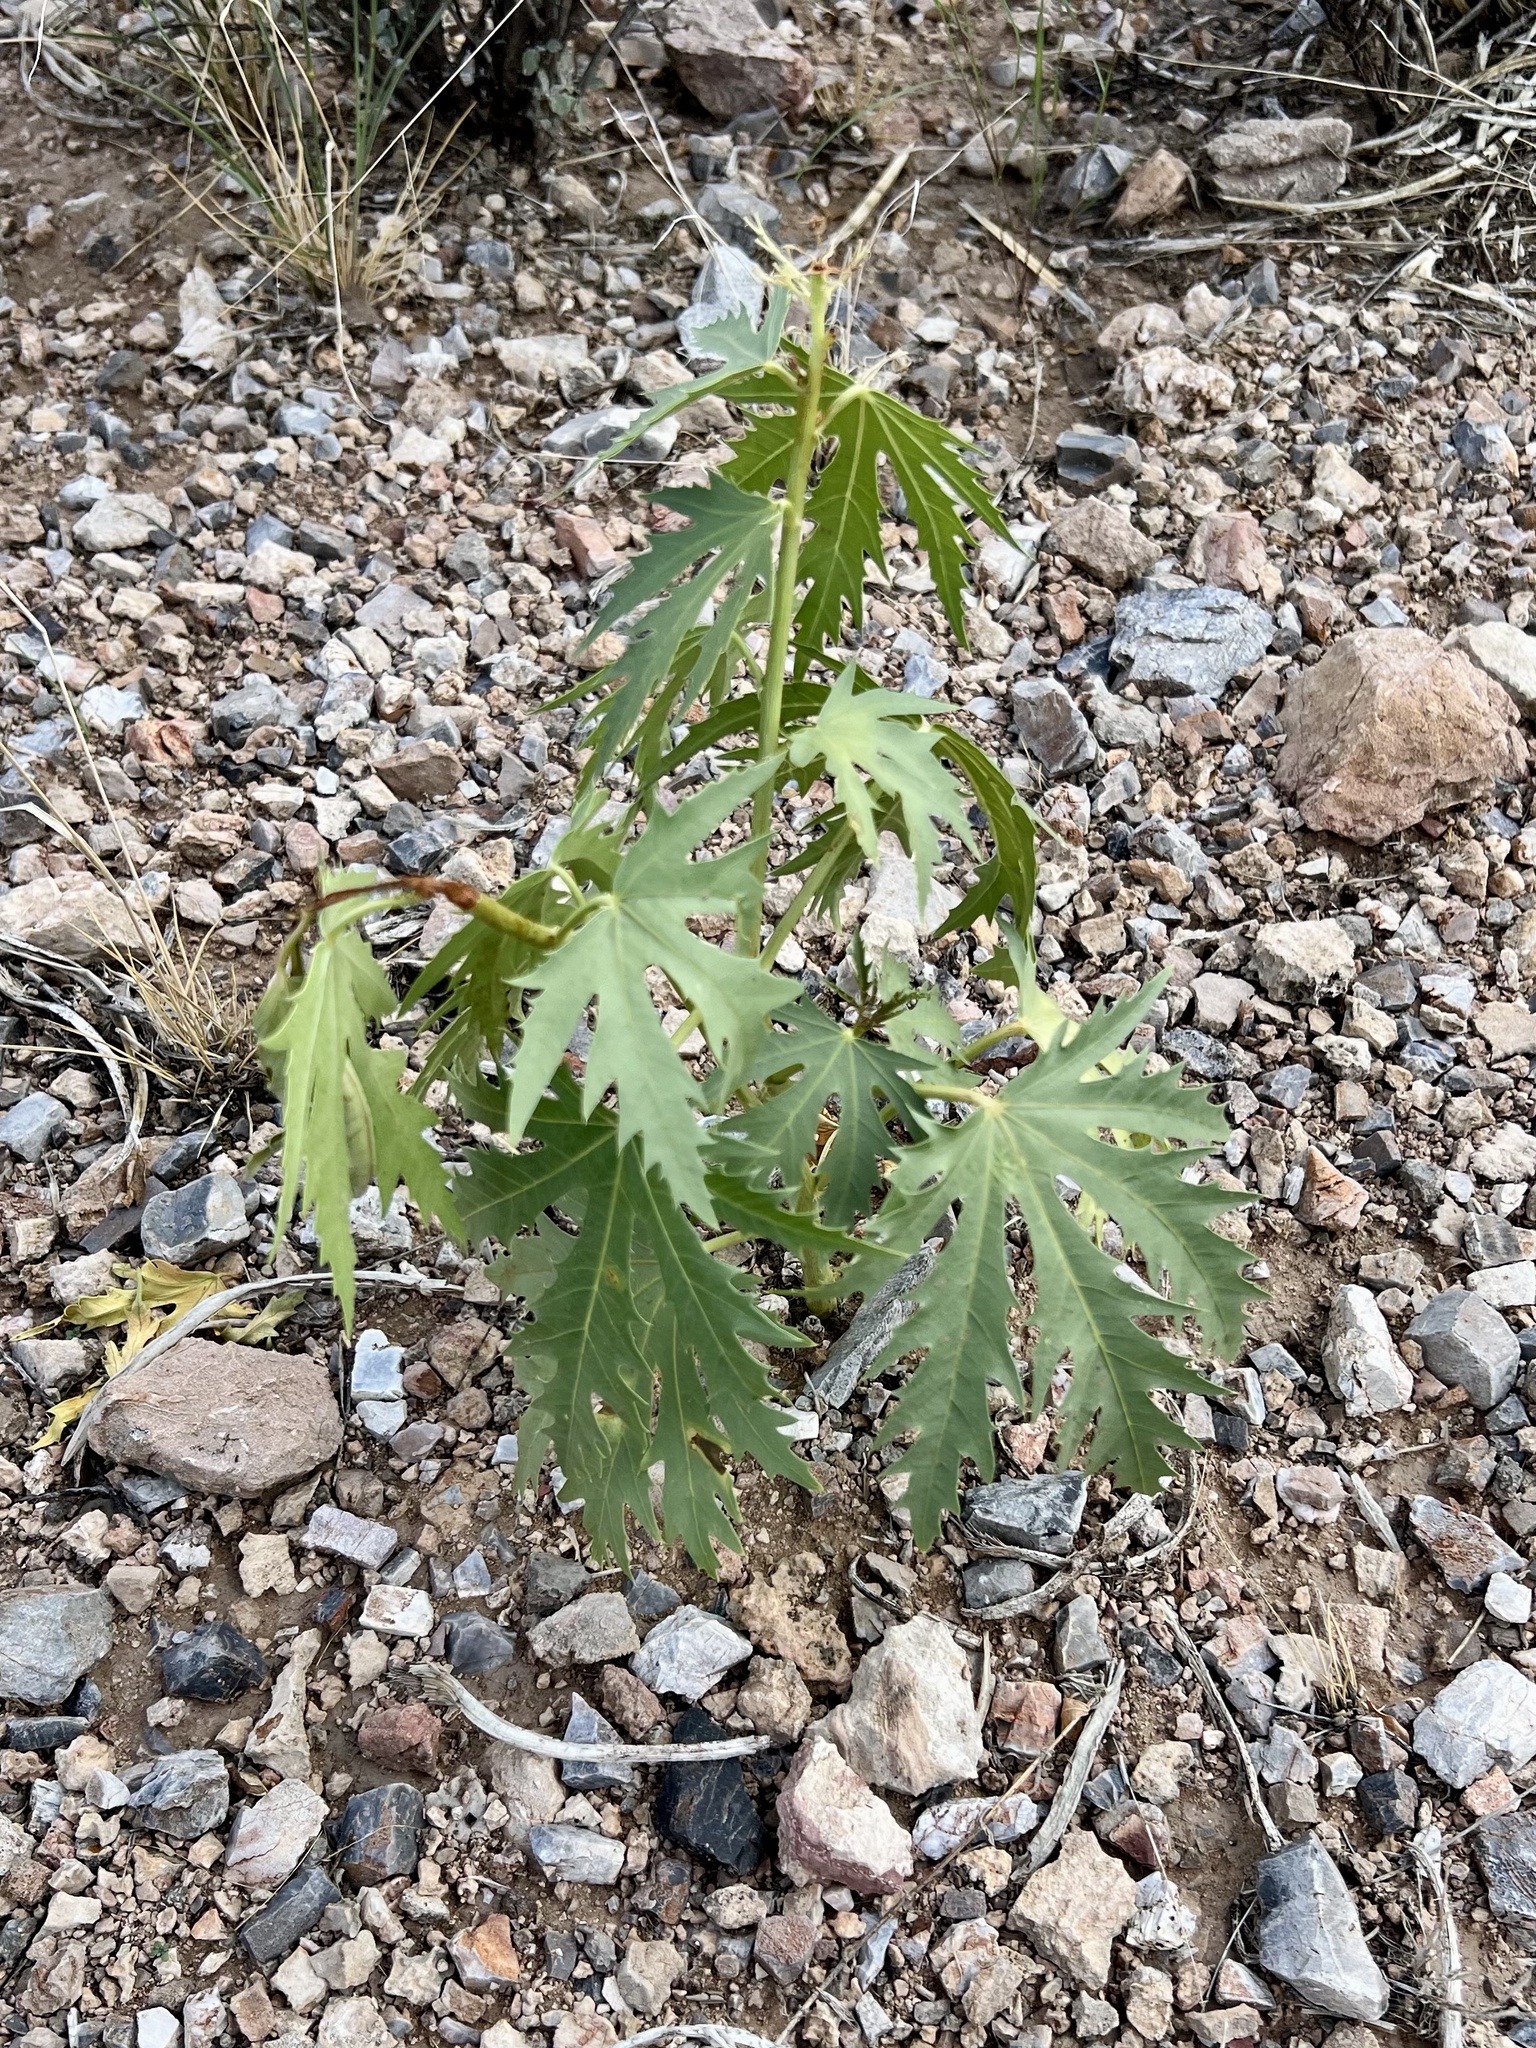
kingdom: Plantae
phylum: Tracheophyta
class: Magnoliopsida
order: Malpighiales
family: Euphorbiaceae
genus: Jatropha
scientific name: Jatropha macrorhiza
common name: Ragged nettlespurge
